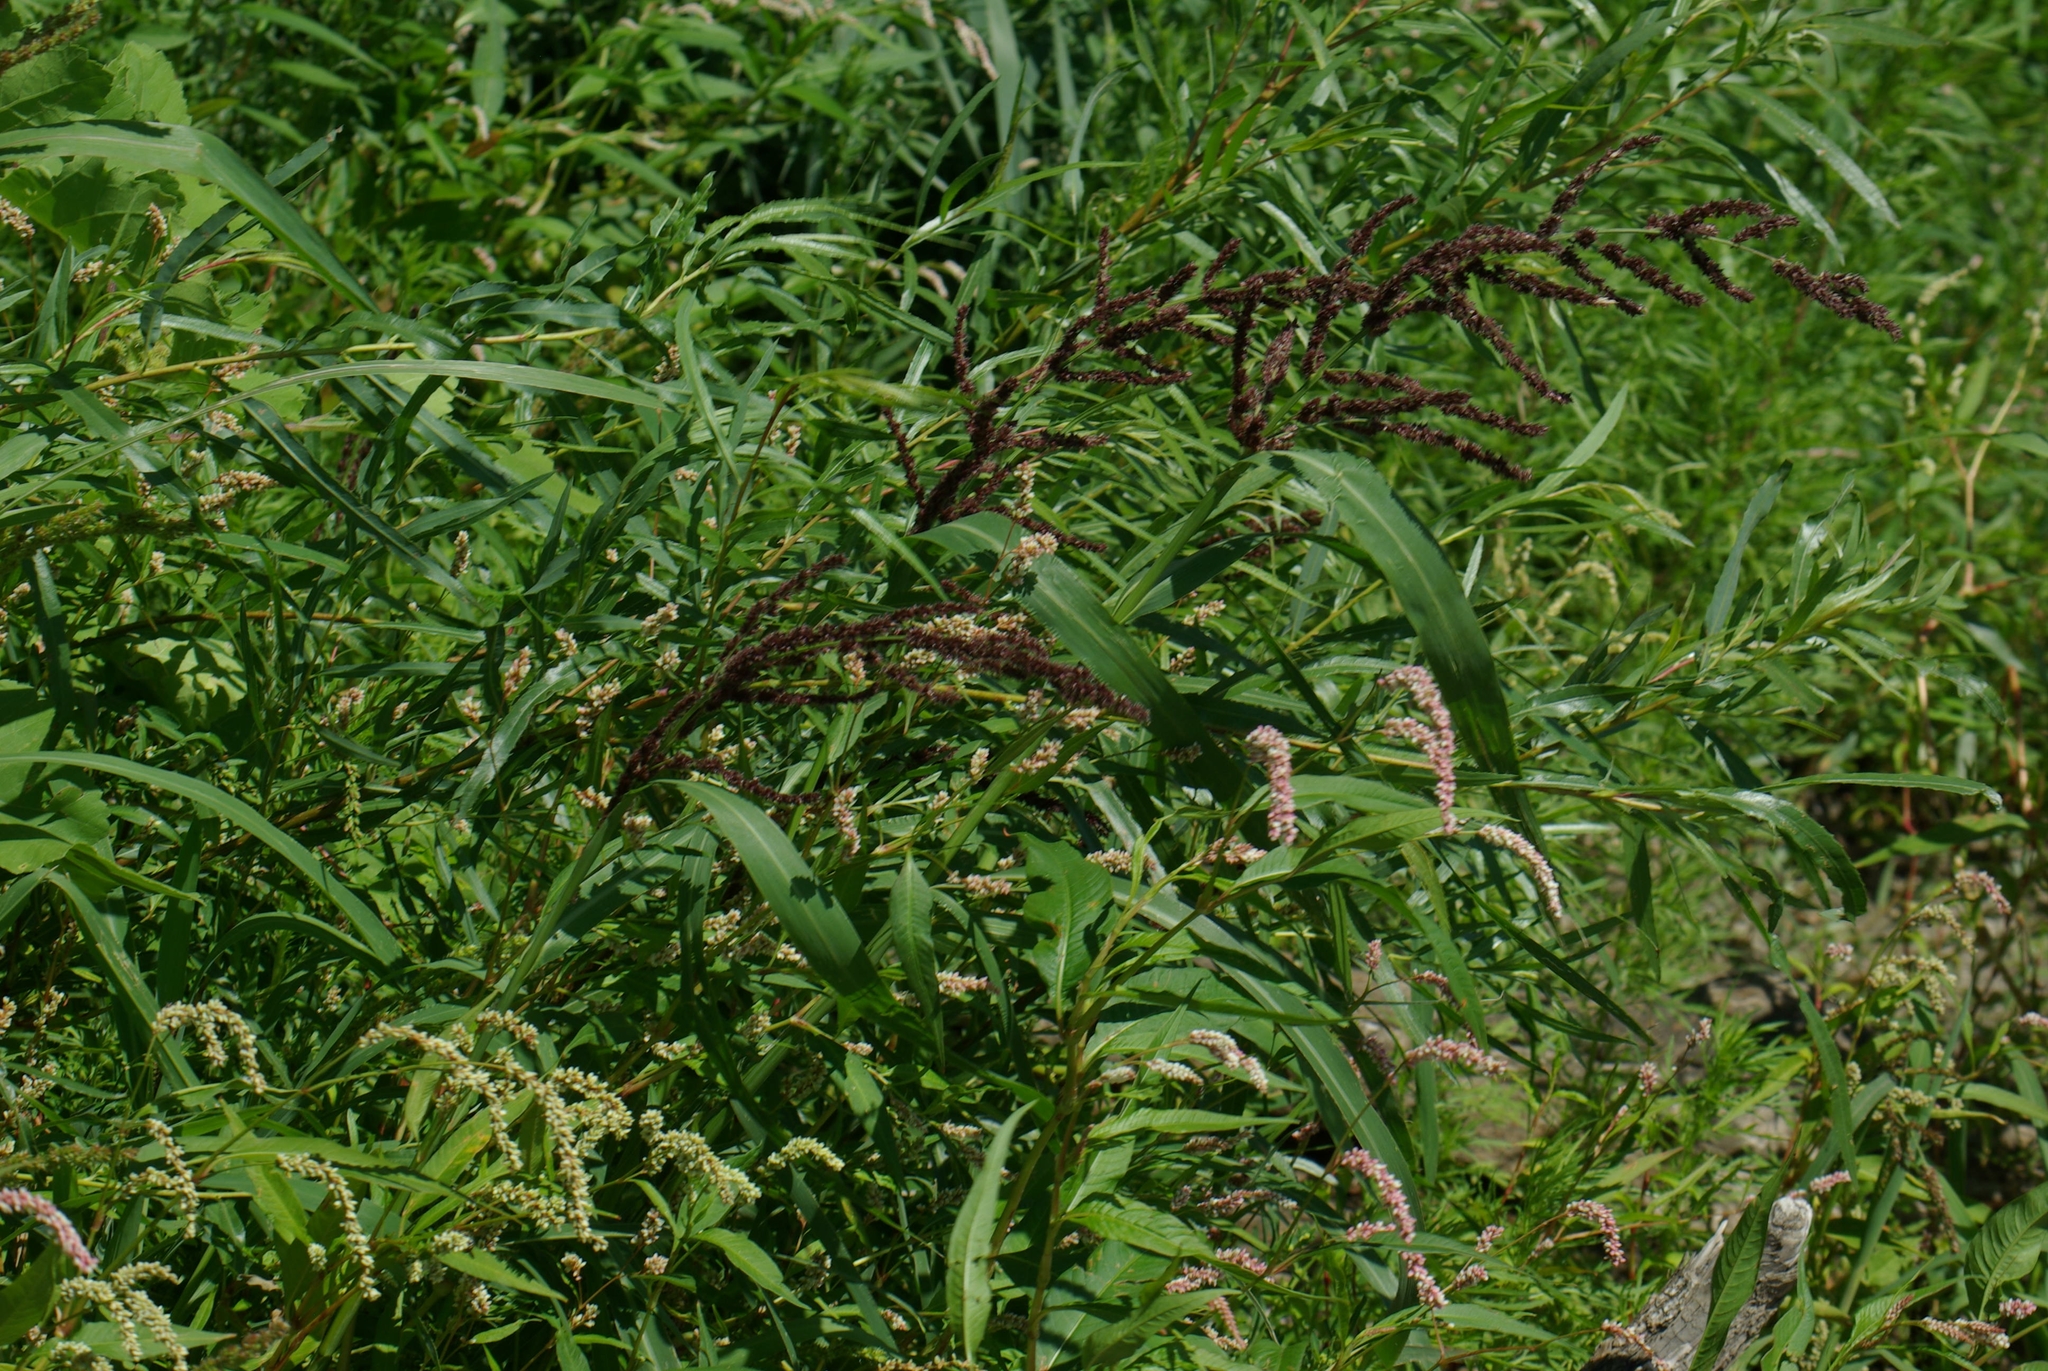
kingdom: Plantae
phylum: Tracheophyta
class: Liliopsida
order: Poales
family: Poaceae
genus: Echinochloa
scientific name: Echinochloa crus-galli
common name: Cockspur
